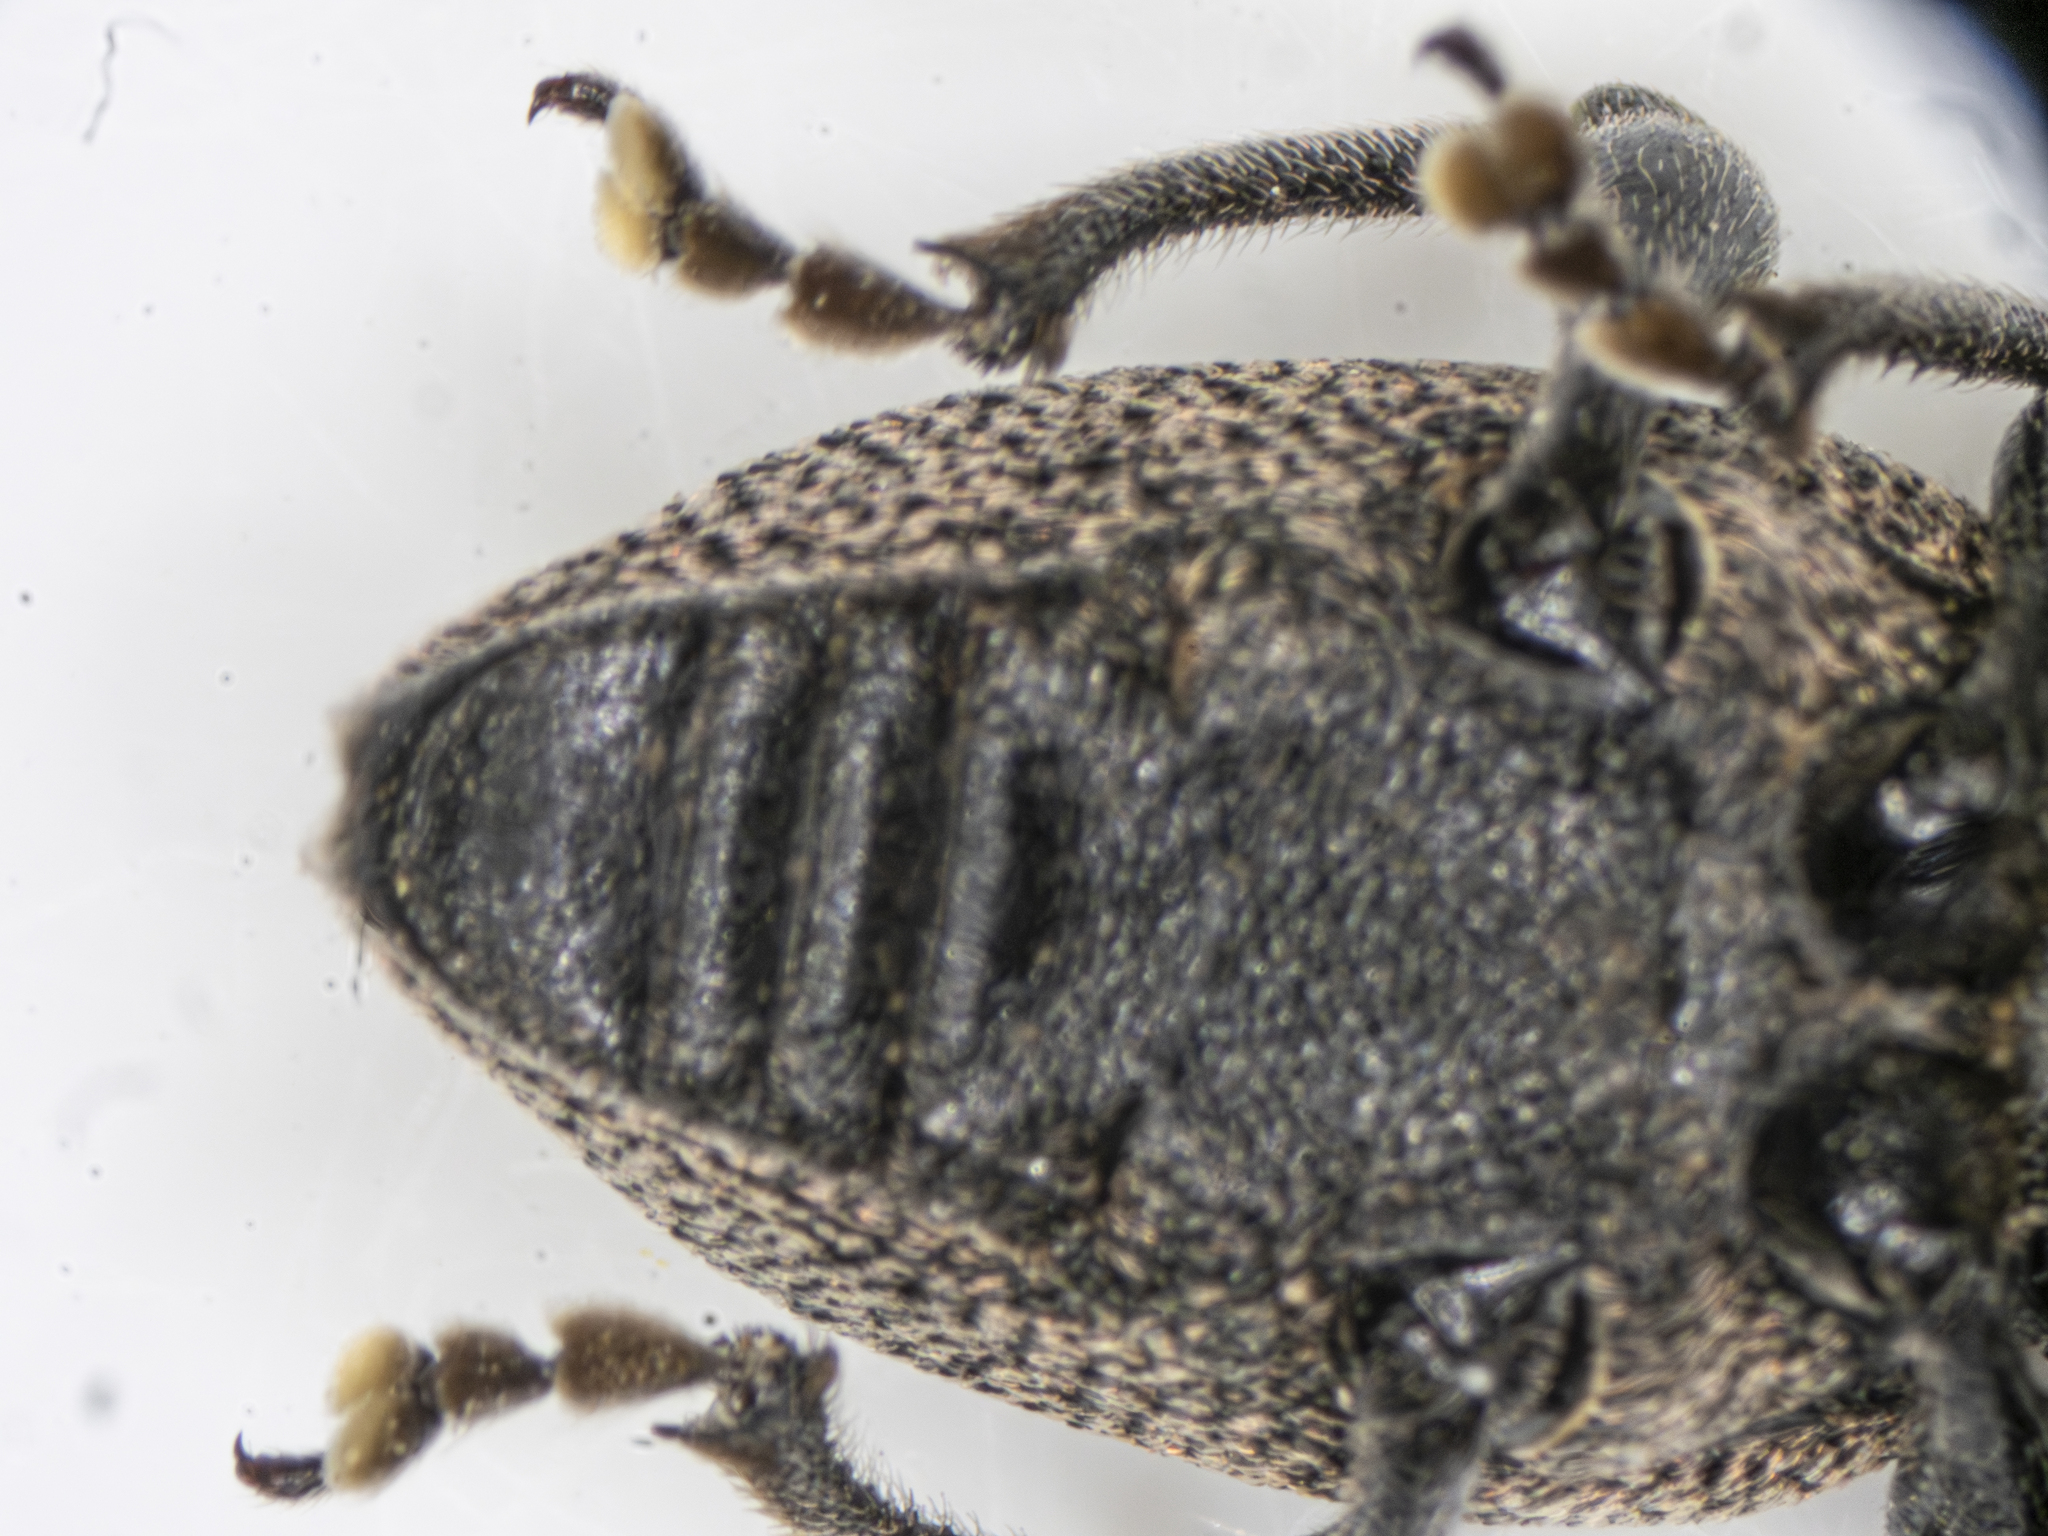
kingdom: Animalia
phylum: Arthropoda
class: Insecta
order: Coleoptera
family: Curculionidae
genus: Otiorhynchus
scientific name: Otiorhynchus bisulcatus
